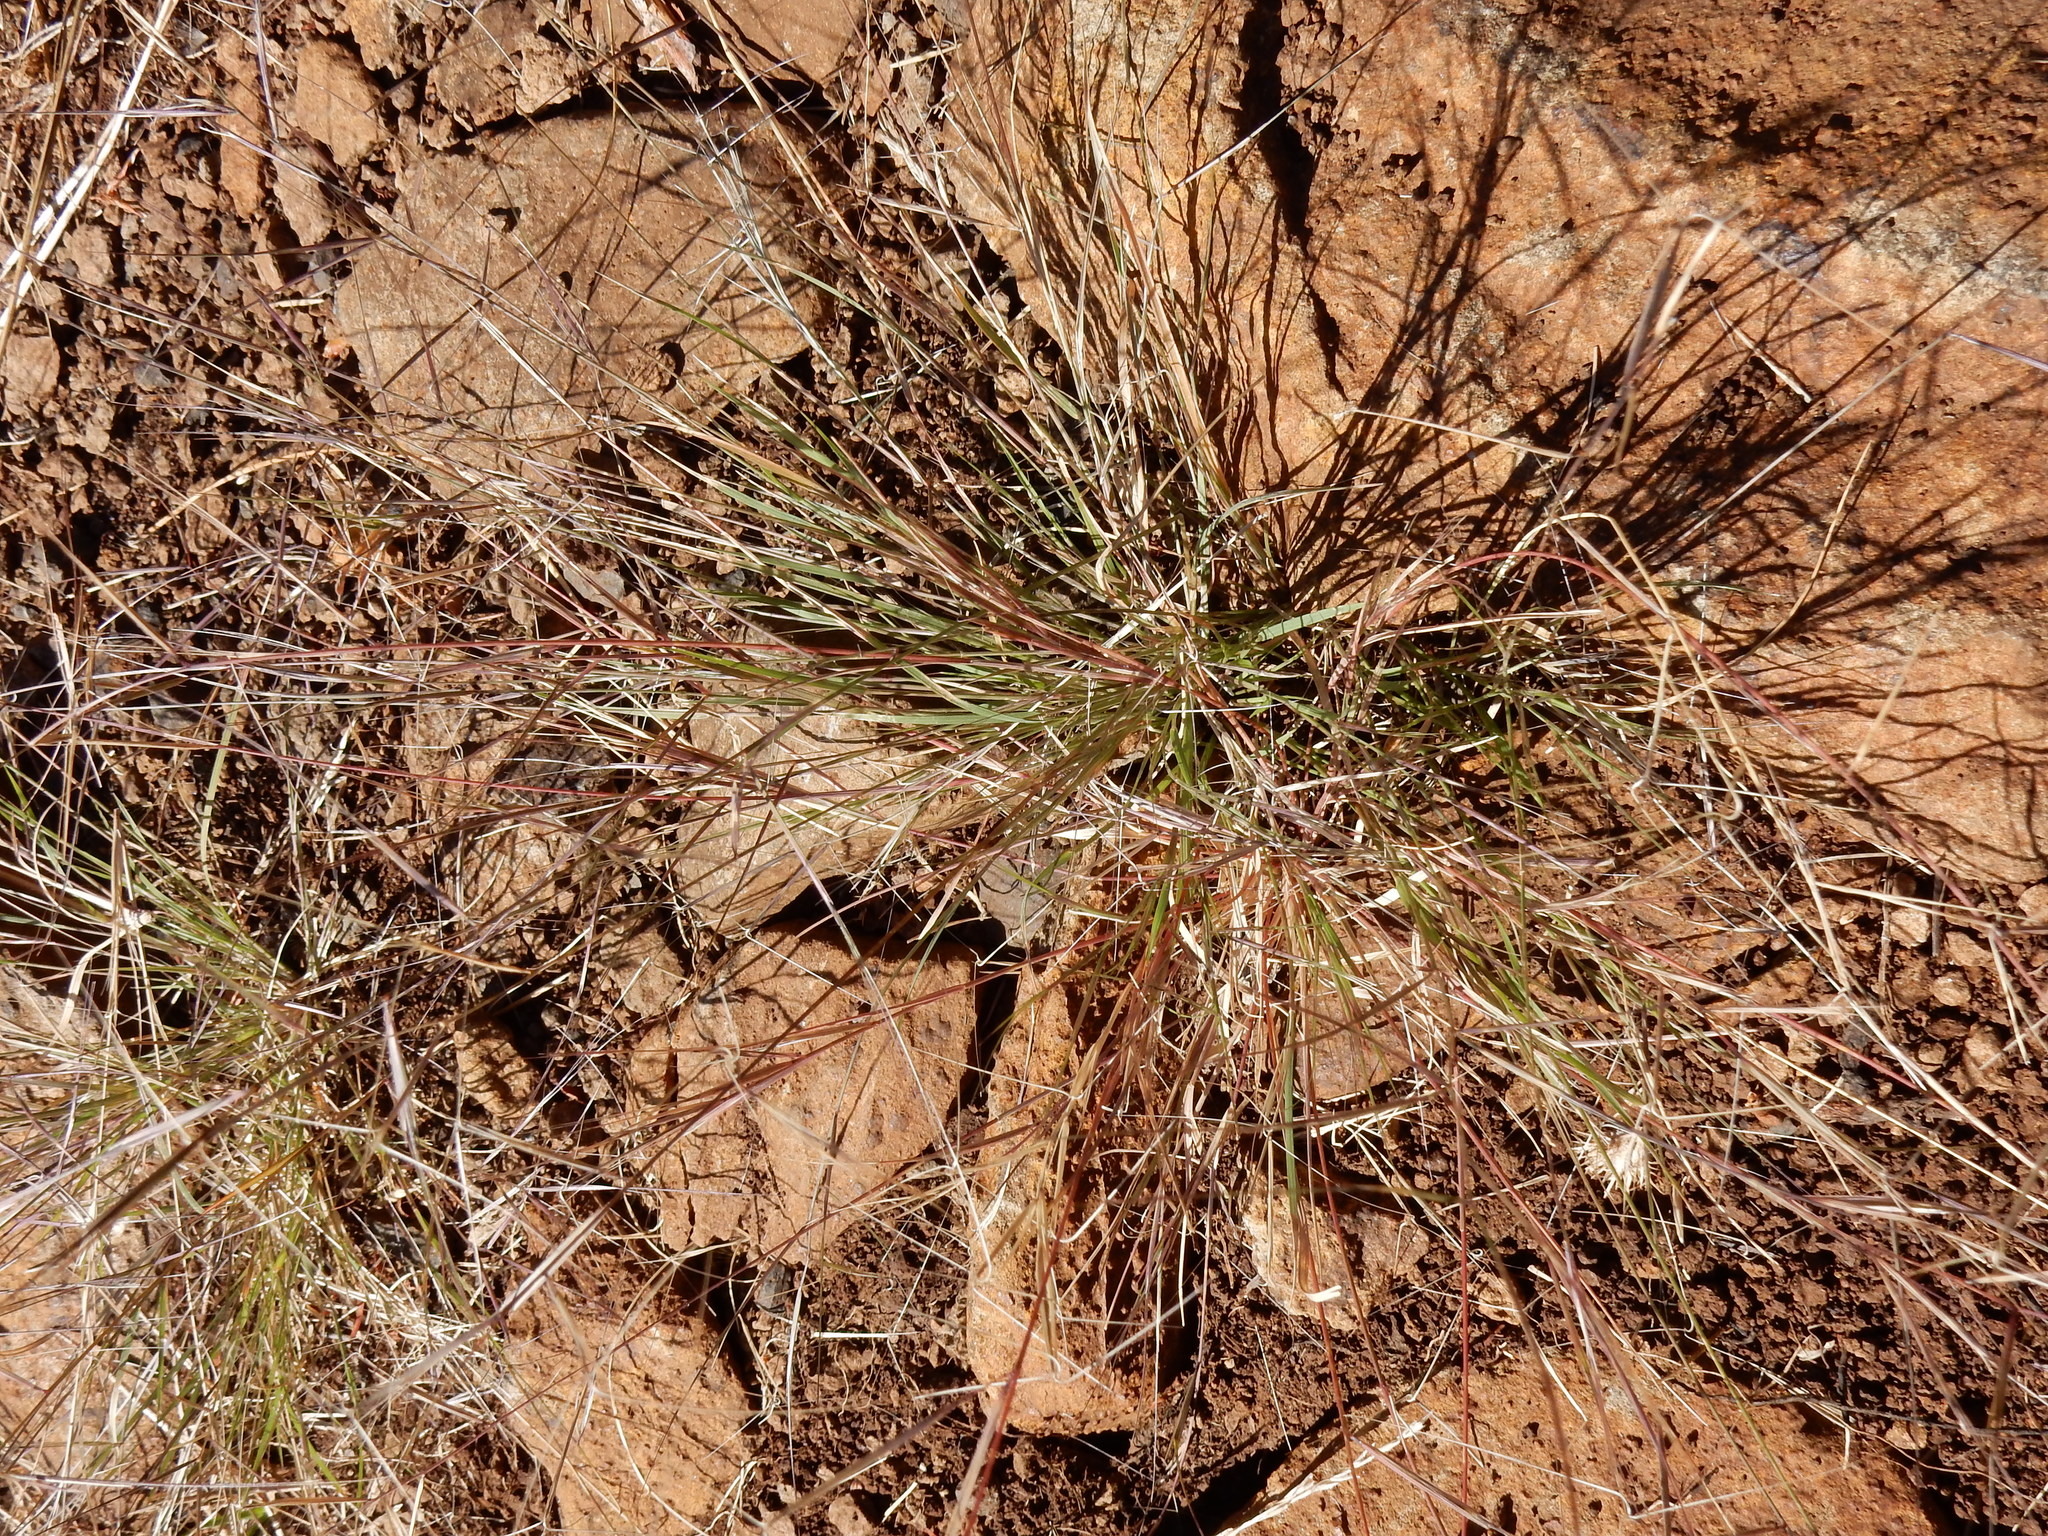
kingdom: Plantae
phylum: Tracheophyta
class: Liliopsida
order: Poales
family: Poaceae
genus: Aristida
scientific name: Aristida oligantha
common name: Few-flowered aristida
